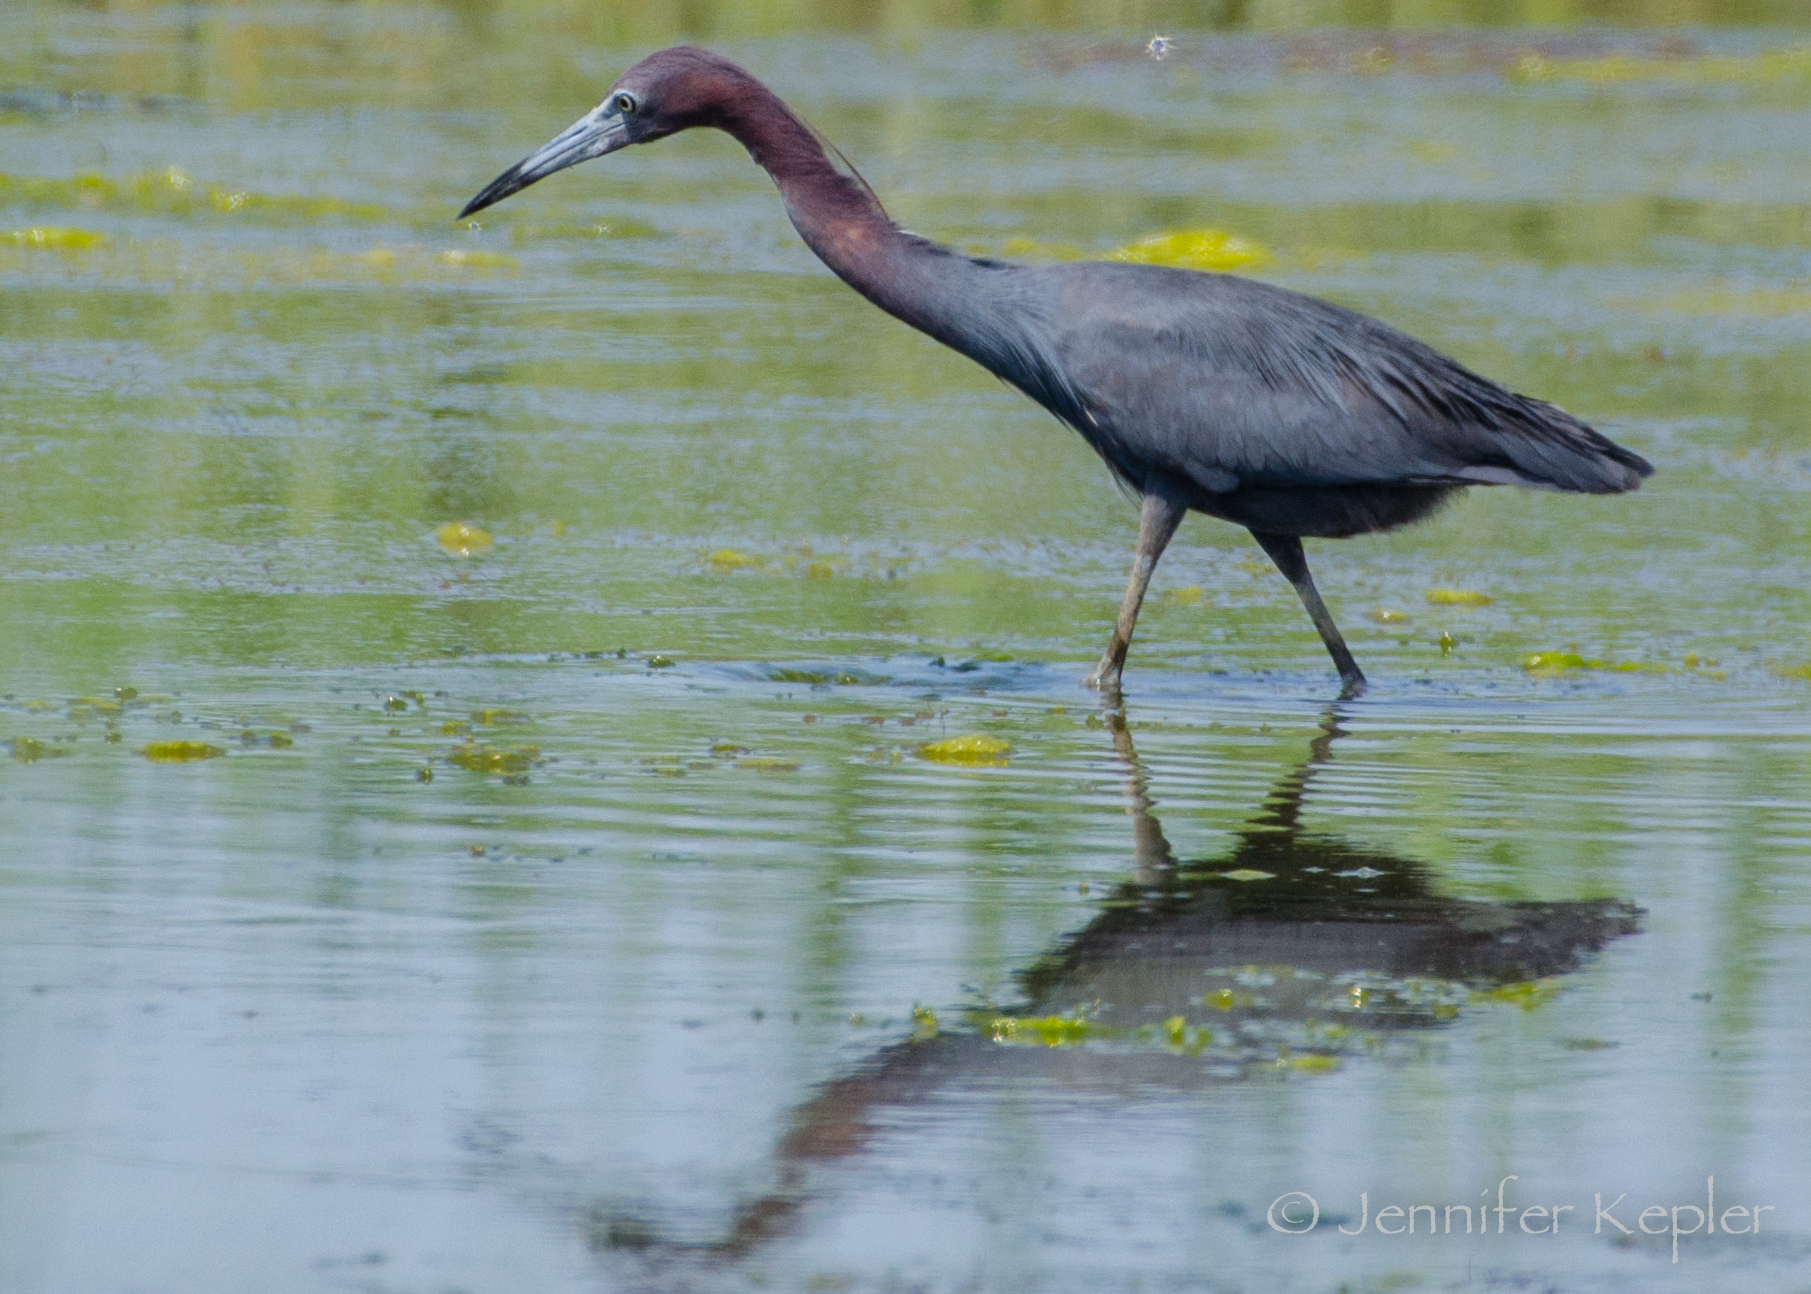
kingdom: Animalia
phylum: Chordata
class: Aves
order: Pelecaniformes
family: Ardeidae
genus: Egretta
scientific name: Egretta caerulea
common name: Little blue heron
